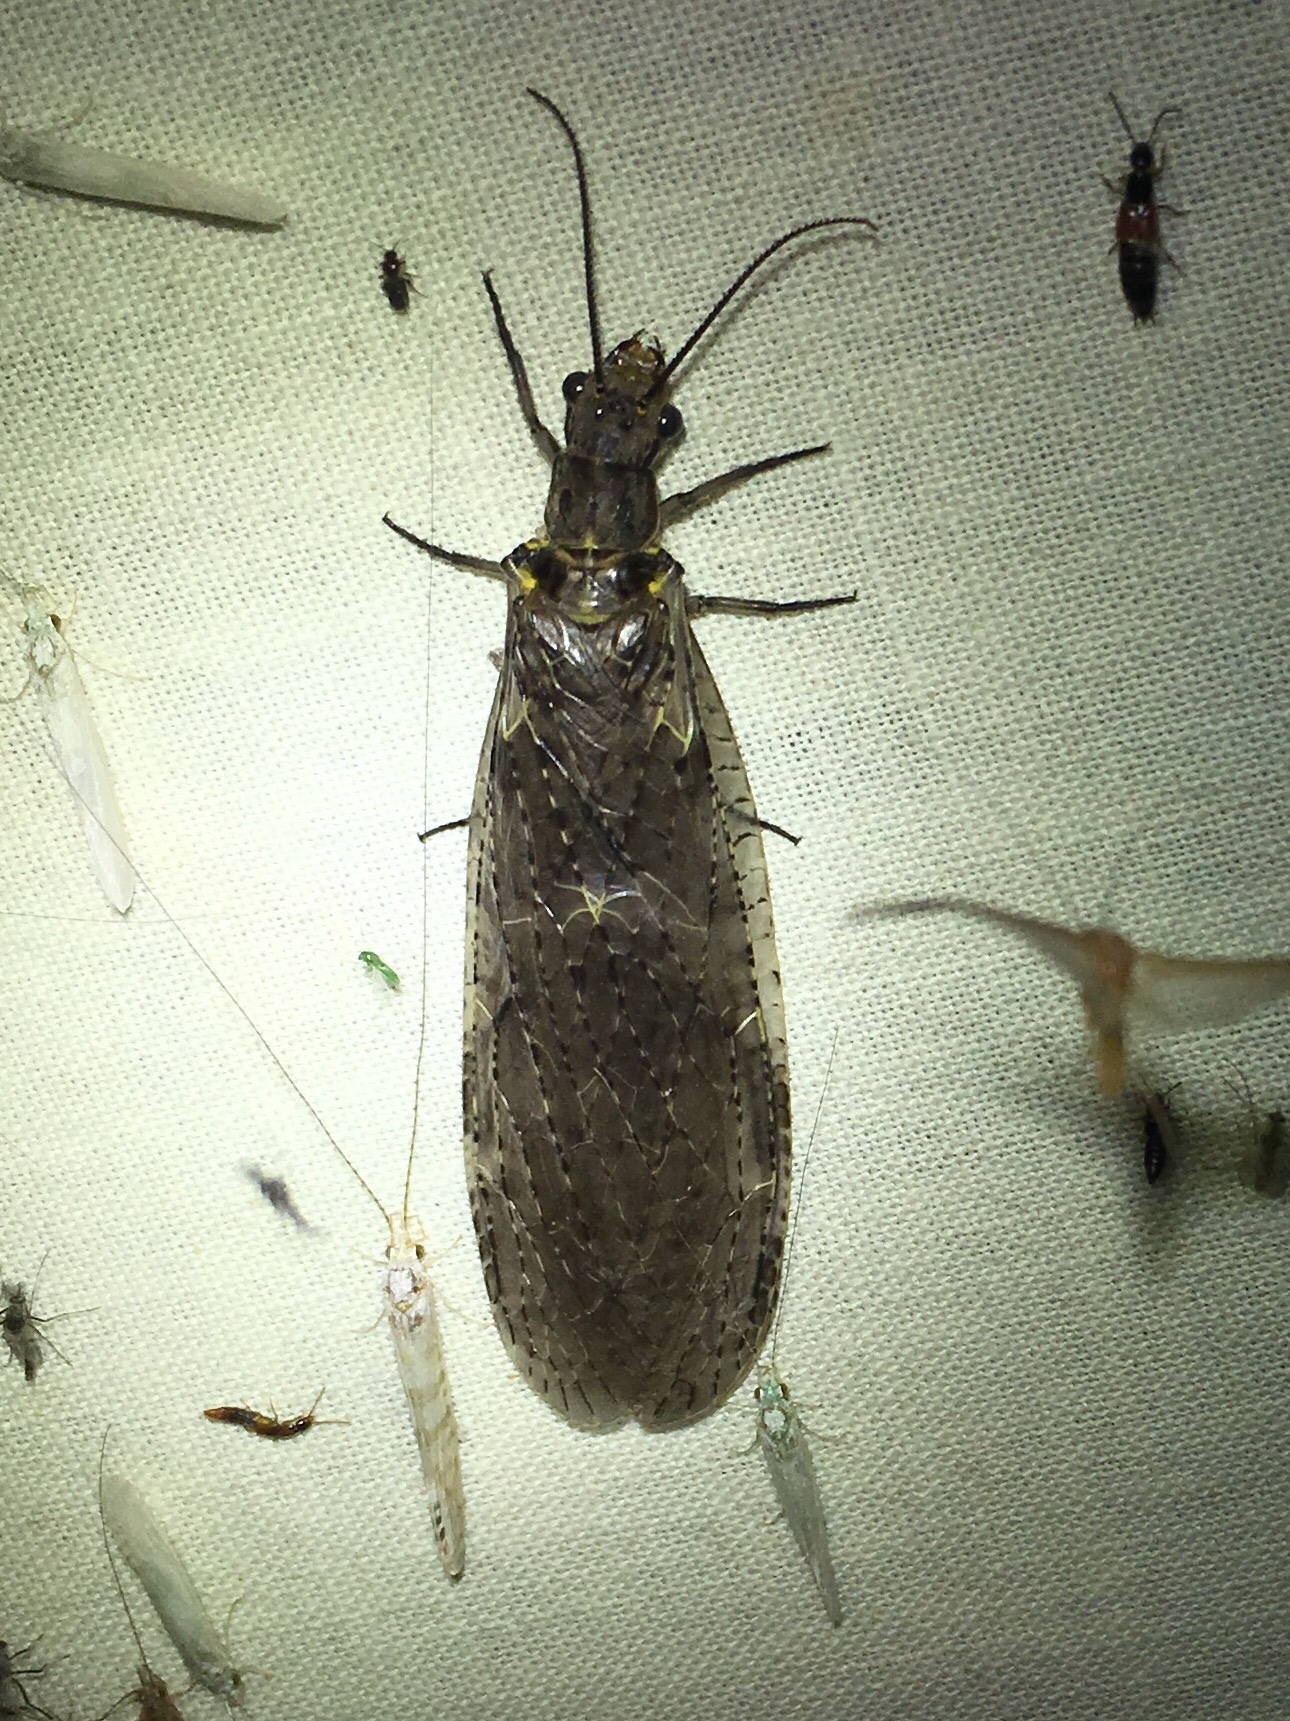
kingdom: Animalia
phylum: Arthropoda
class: Insecta
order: Megaloptera
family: Corydalidae
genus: Chauliodes
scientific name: Chauliodes rastricornis
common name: Spring fishfly
